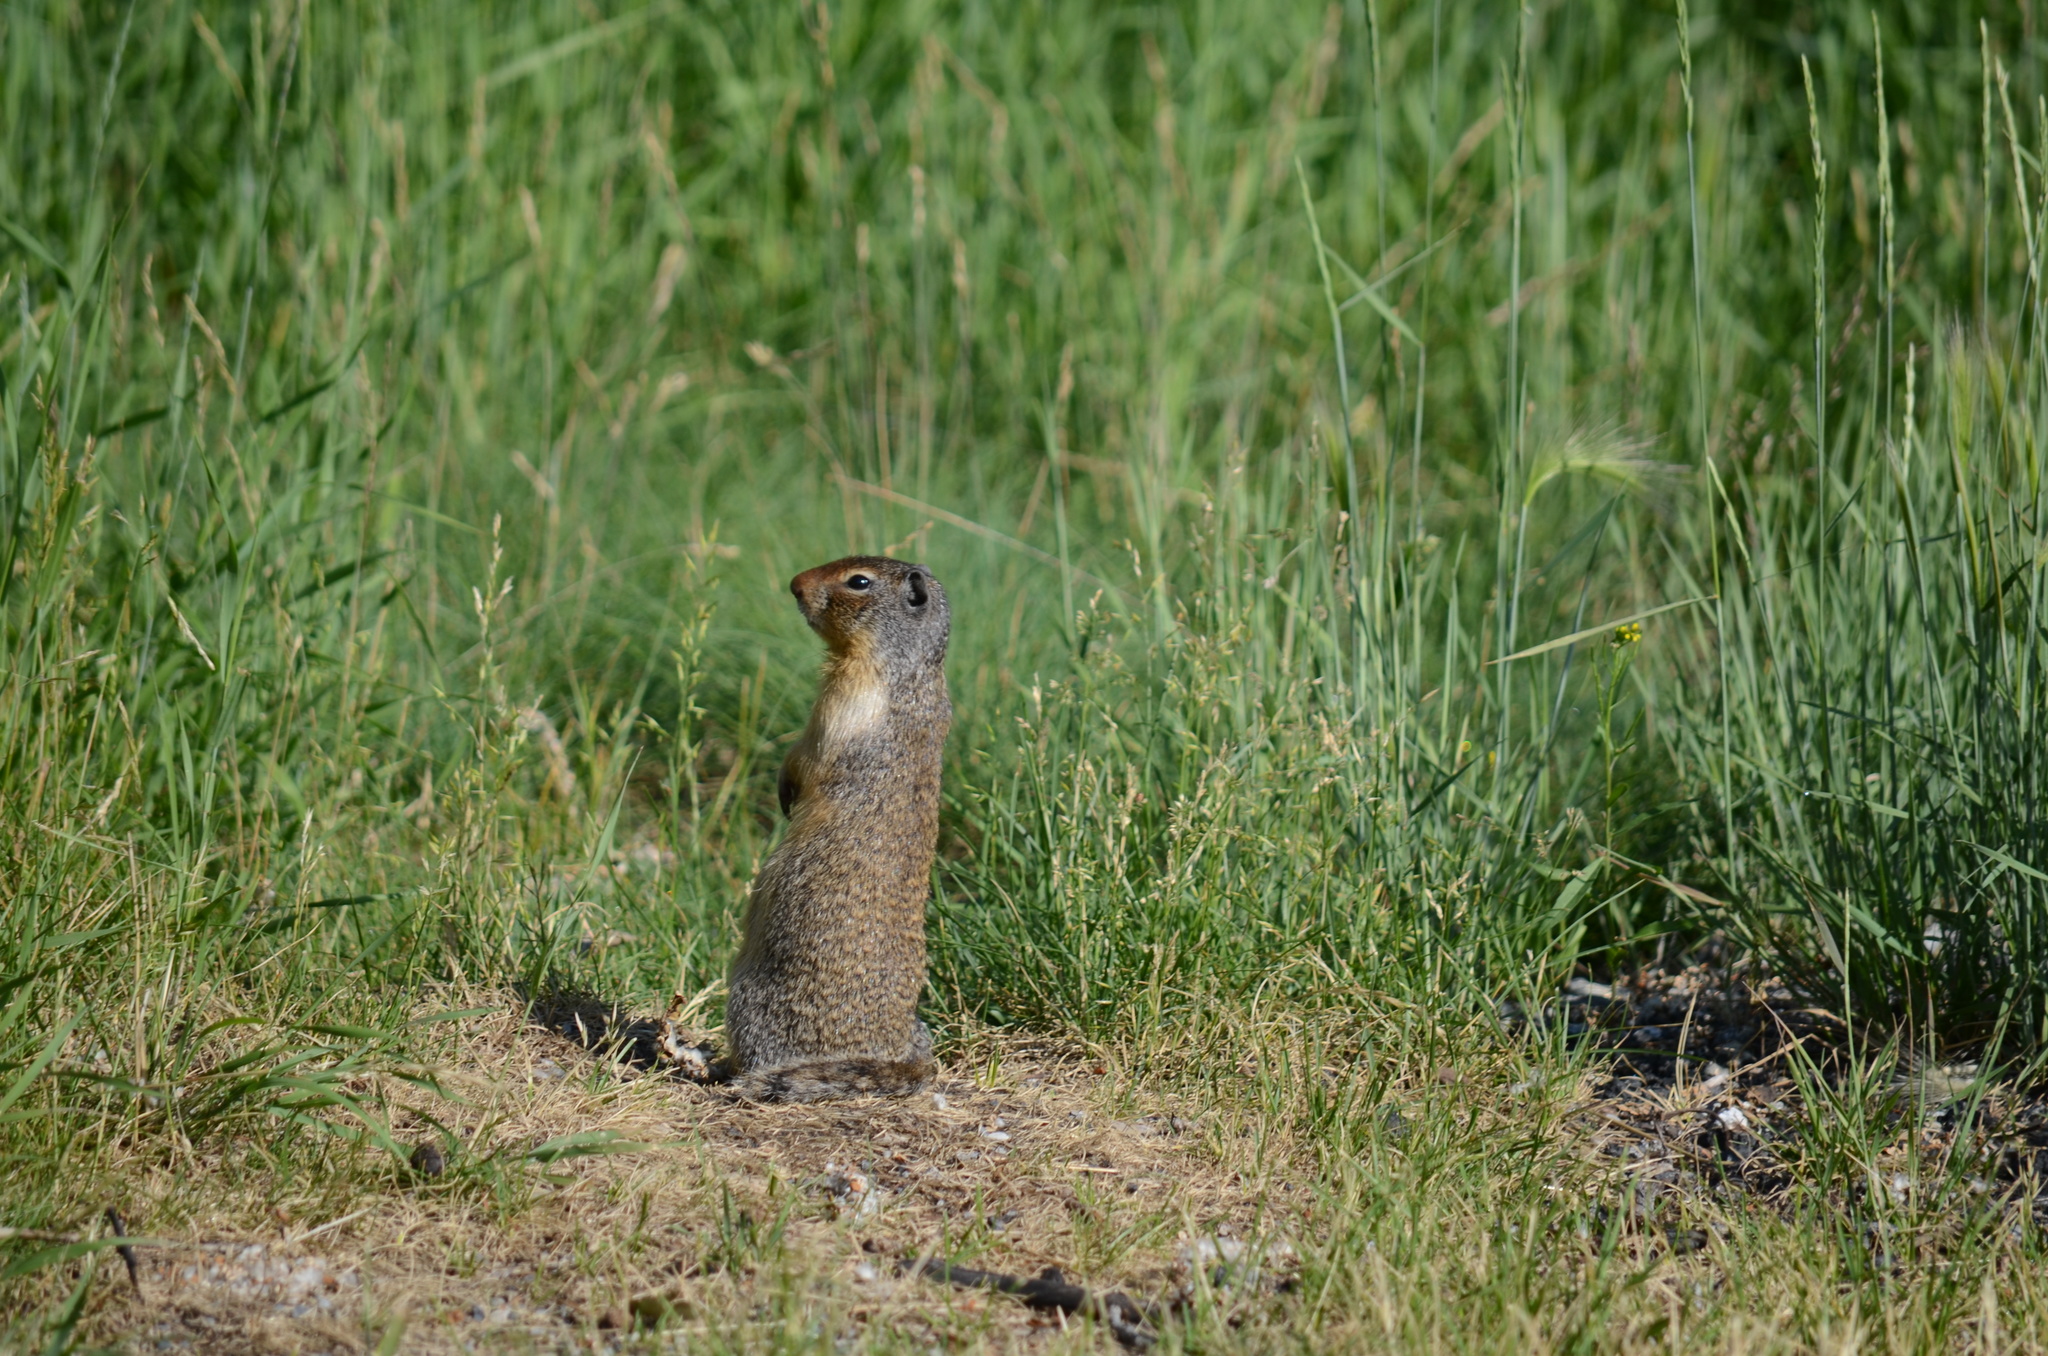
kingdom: Animalia
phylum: Chordata
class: Mammalia
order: Rodentia
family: Sciuridae
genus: Urocitellus
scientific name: Urocitellus columbianus
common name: Columbian ground squirrel
